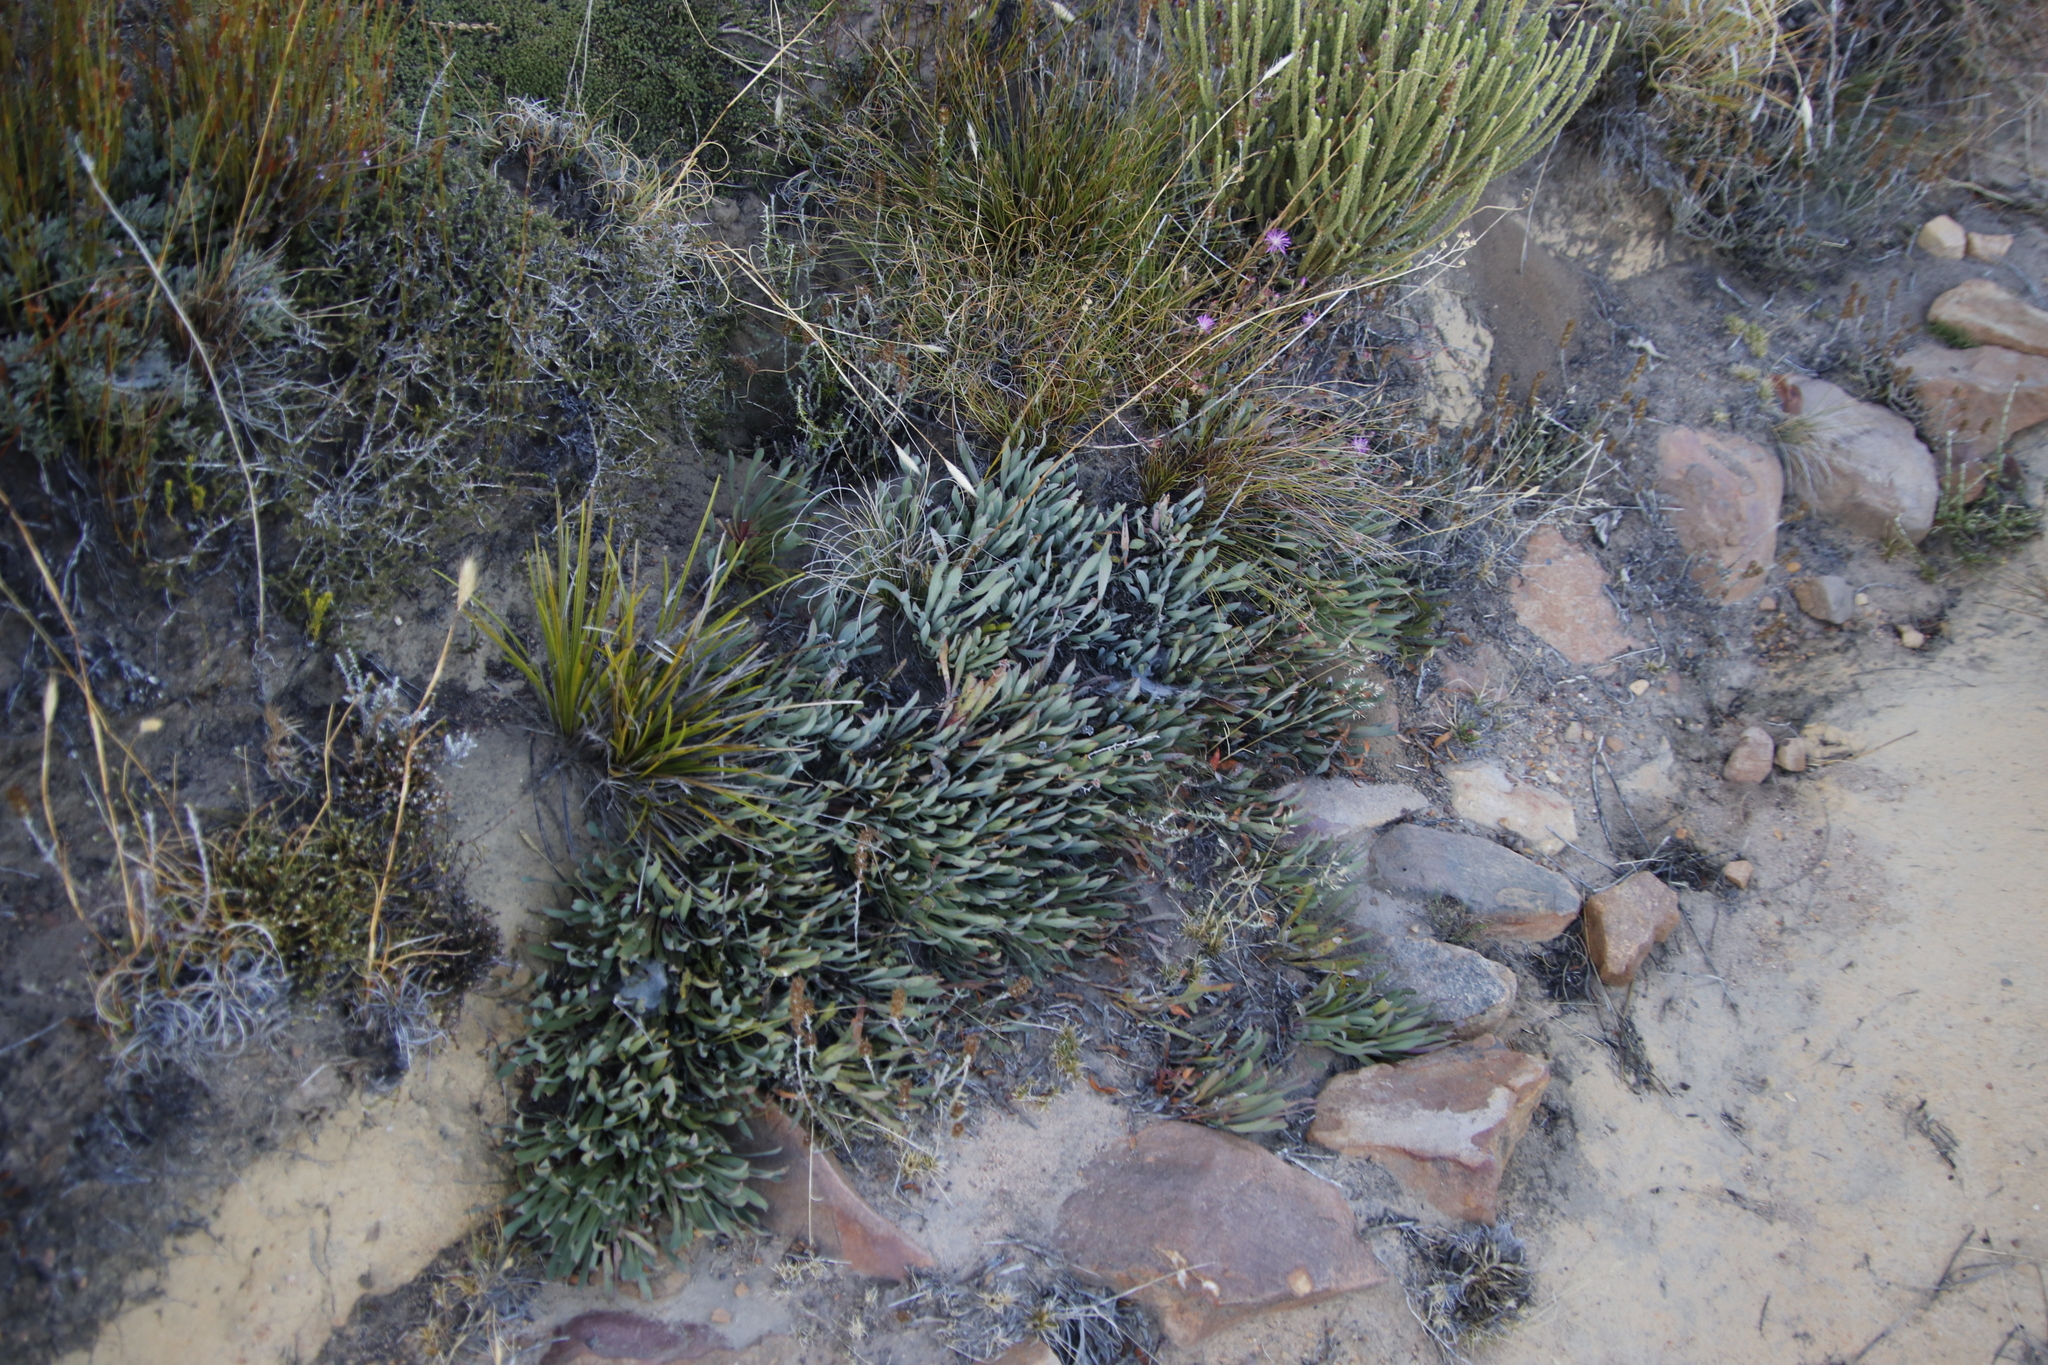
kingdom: Plantae
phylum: Tracheophyta
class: Magnoliopsida
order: Proteales
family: Proteaceae
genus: Protea
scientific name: Protea laevis
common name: Smooth-leaf sugarbush
